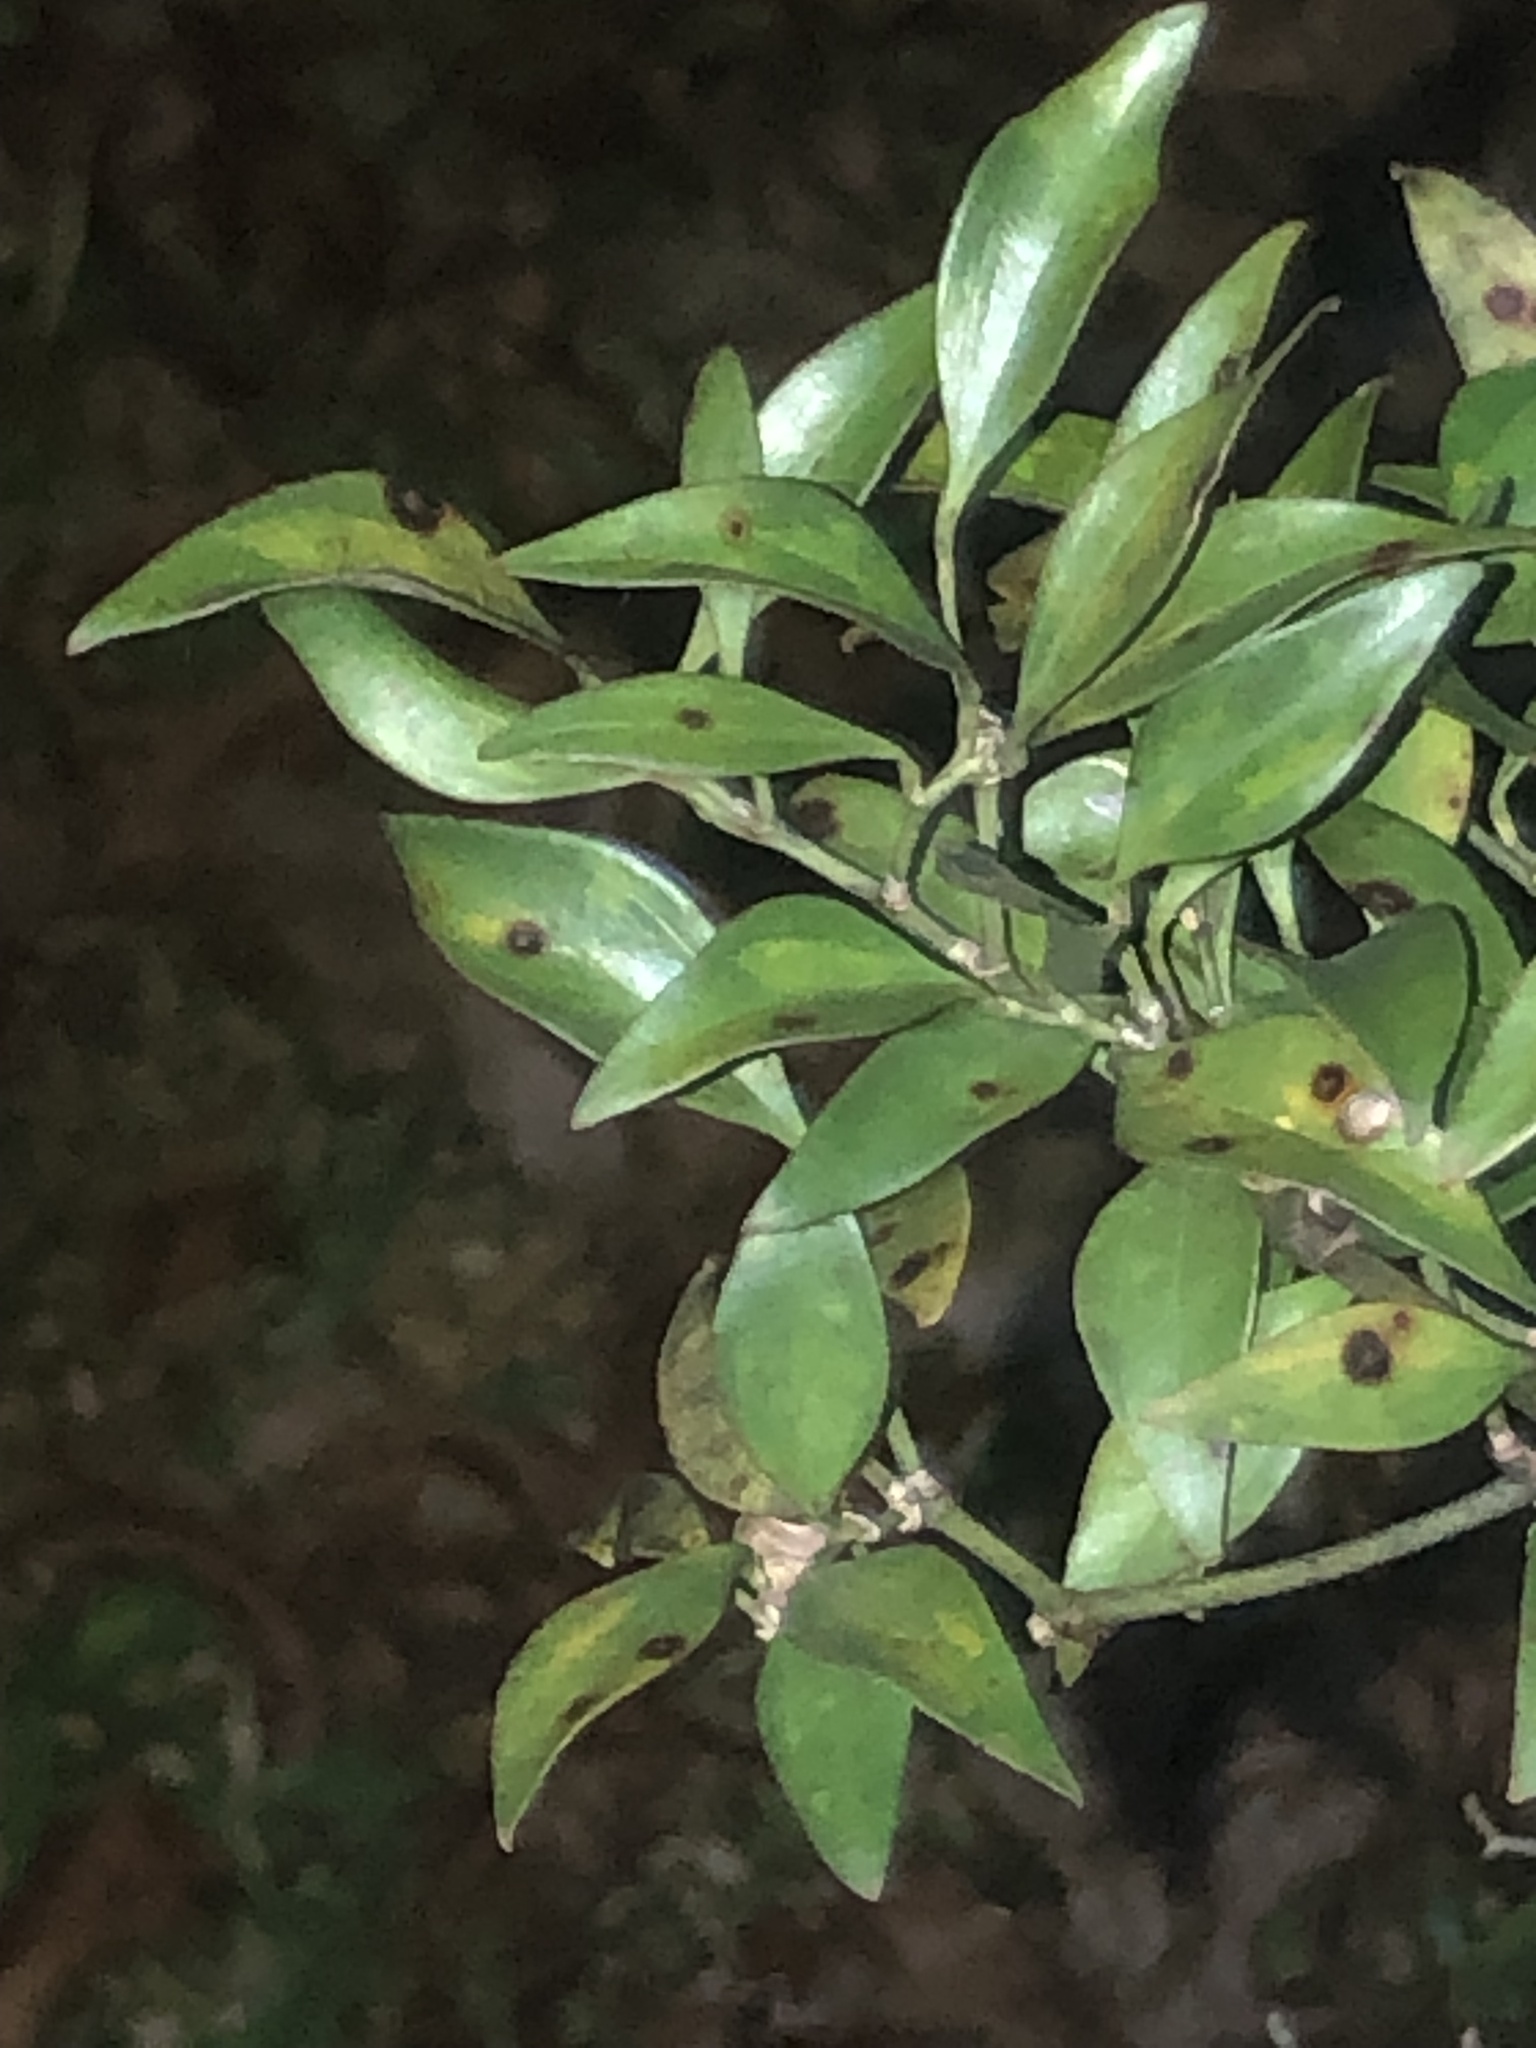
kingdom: Plantae
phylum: Tracheophyta
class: Liliopsida
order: Liliales
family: Smilacaceae
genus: Smilax
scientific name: Smilax maritima
